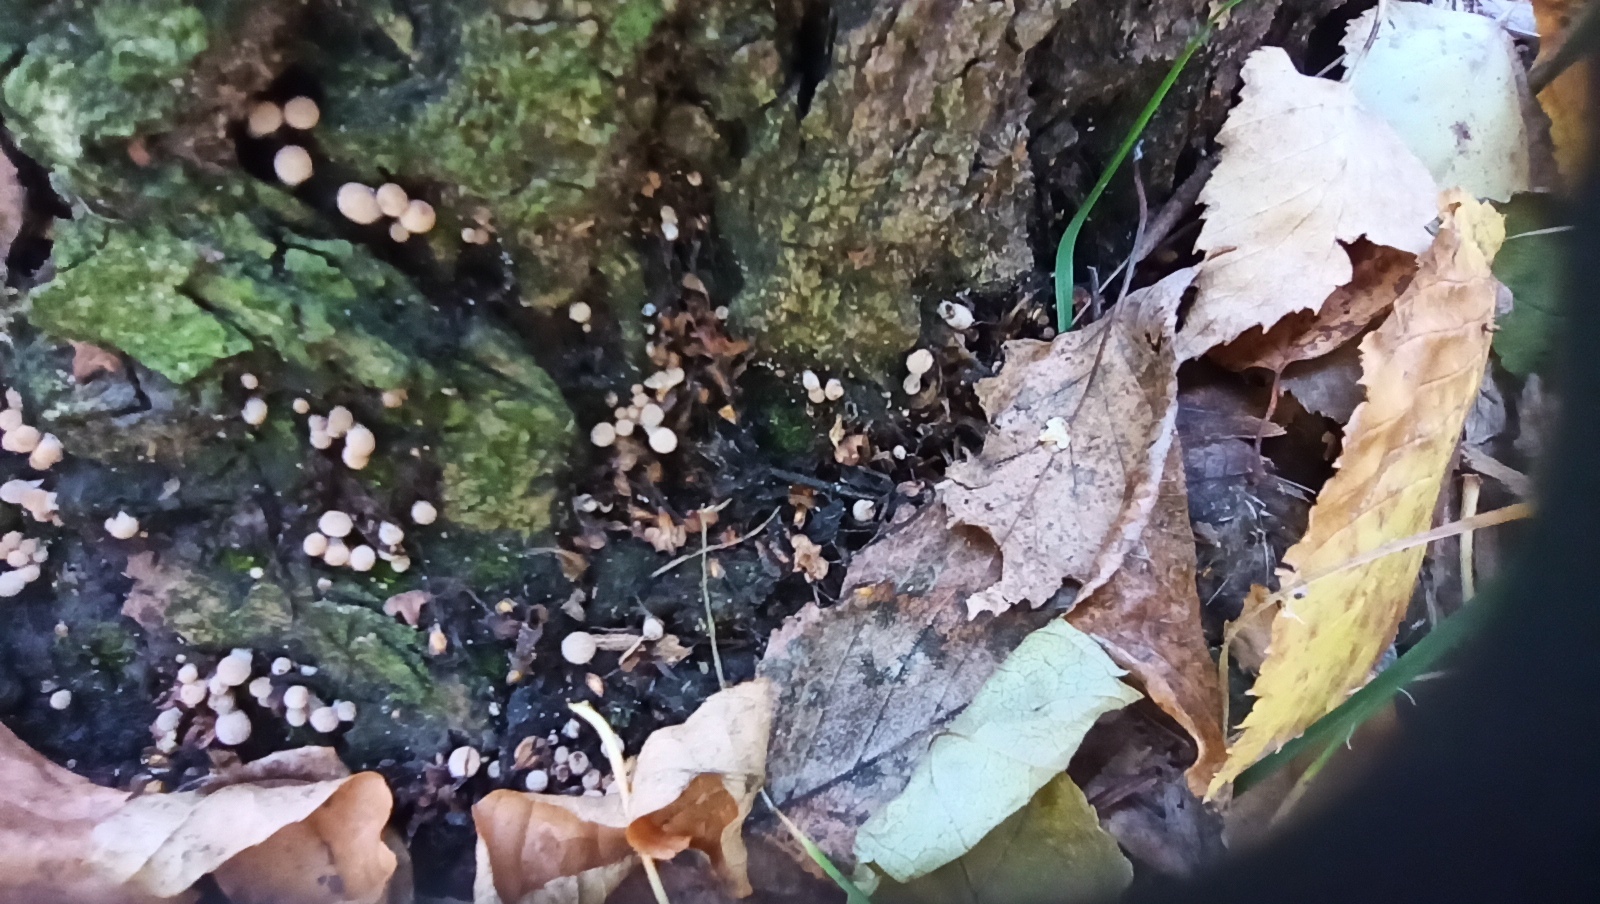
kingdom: Fungi
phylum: Basidiomycota
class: Agaricomycetes
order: Agaricales
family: Psathyrellaceae
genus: Coprinellus
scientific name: Coprinellus disseminatus
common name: Fairies' bonnets
